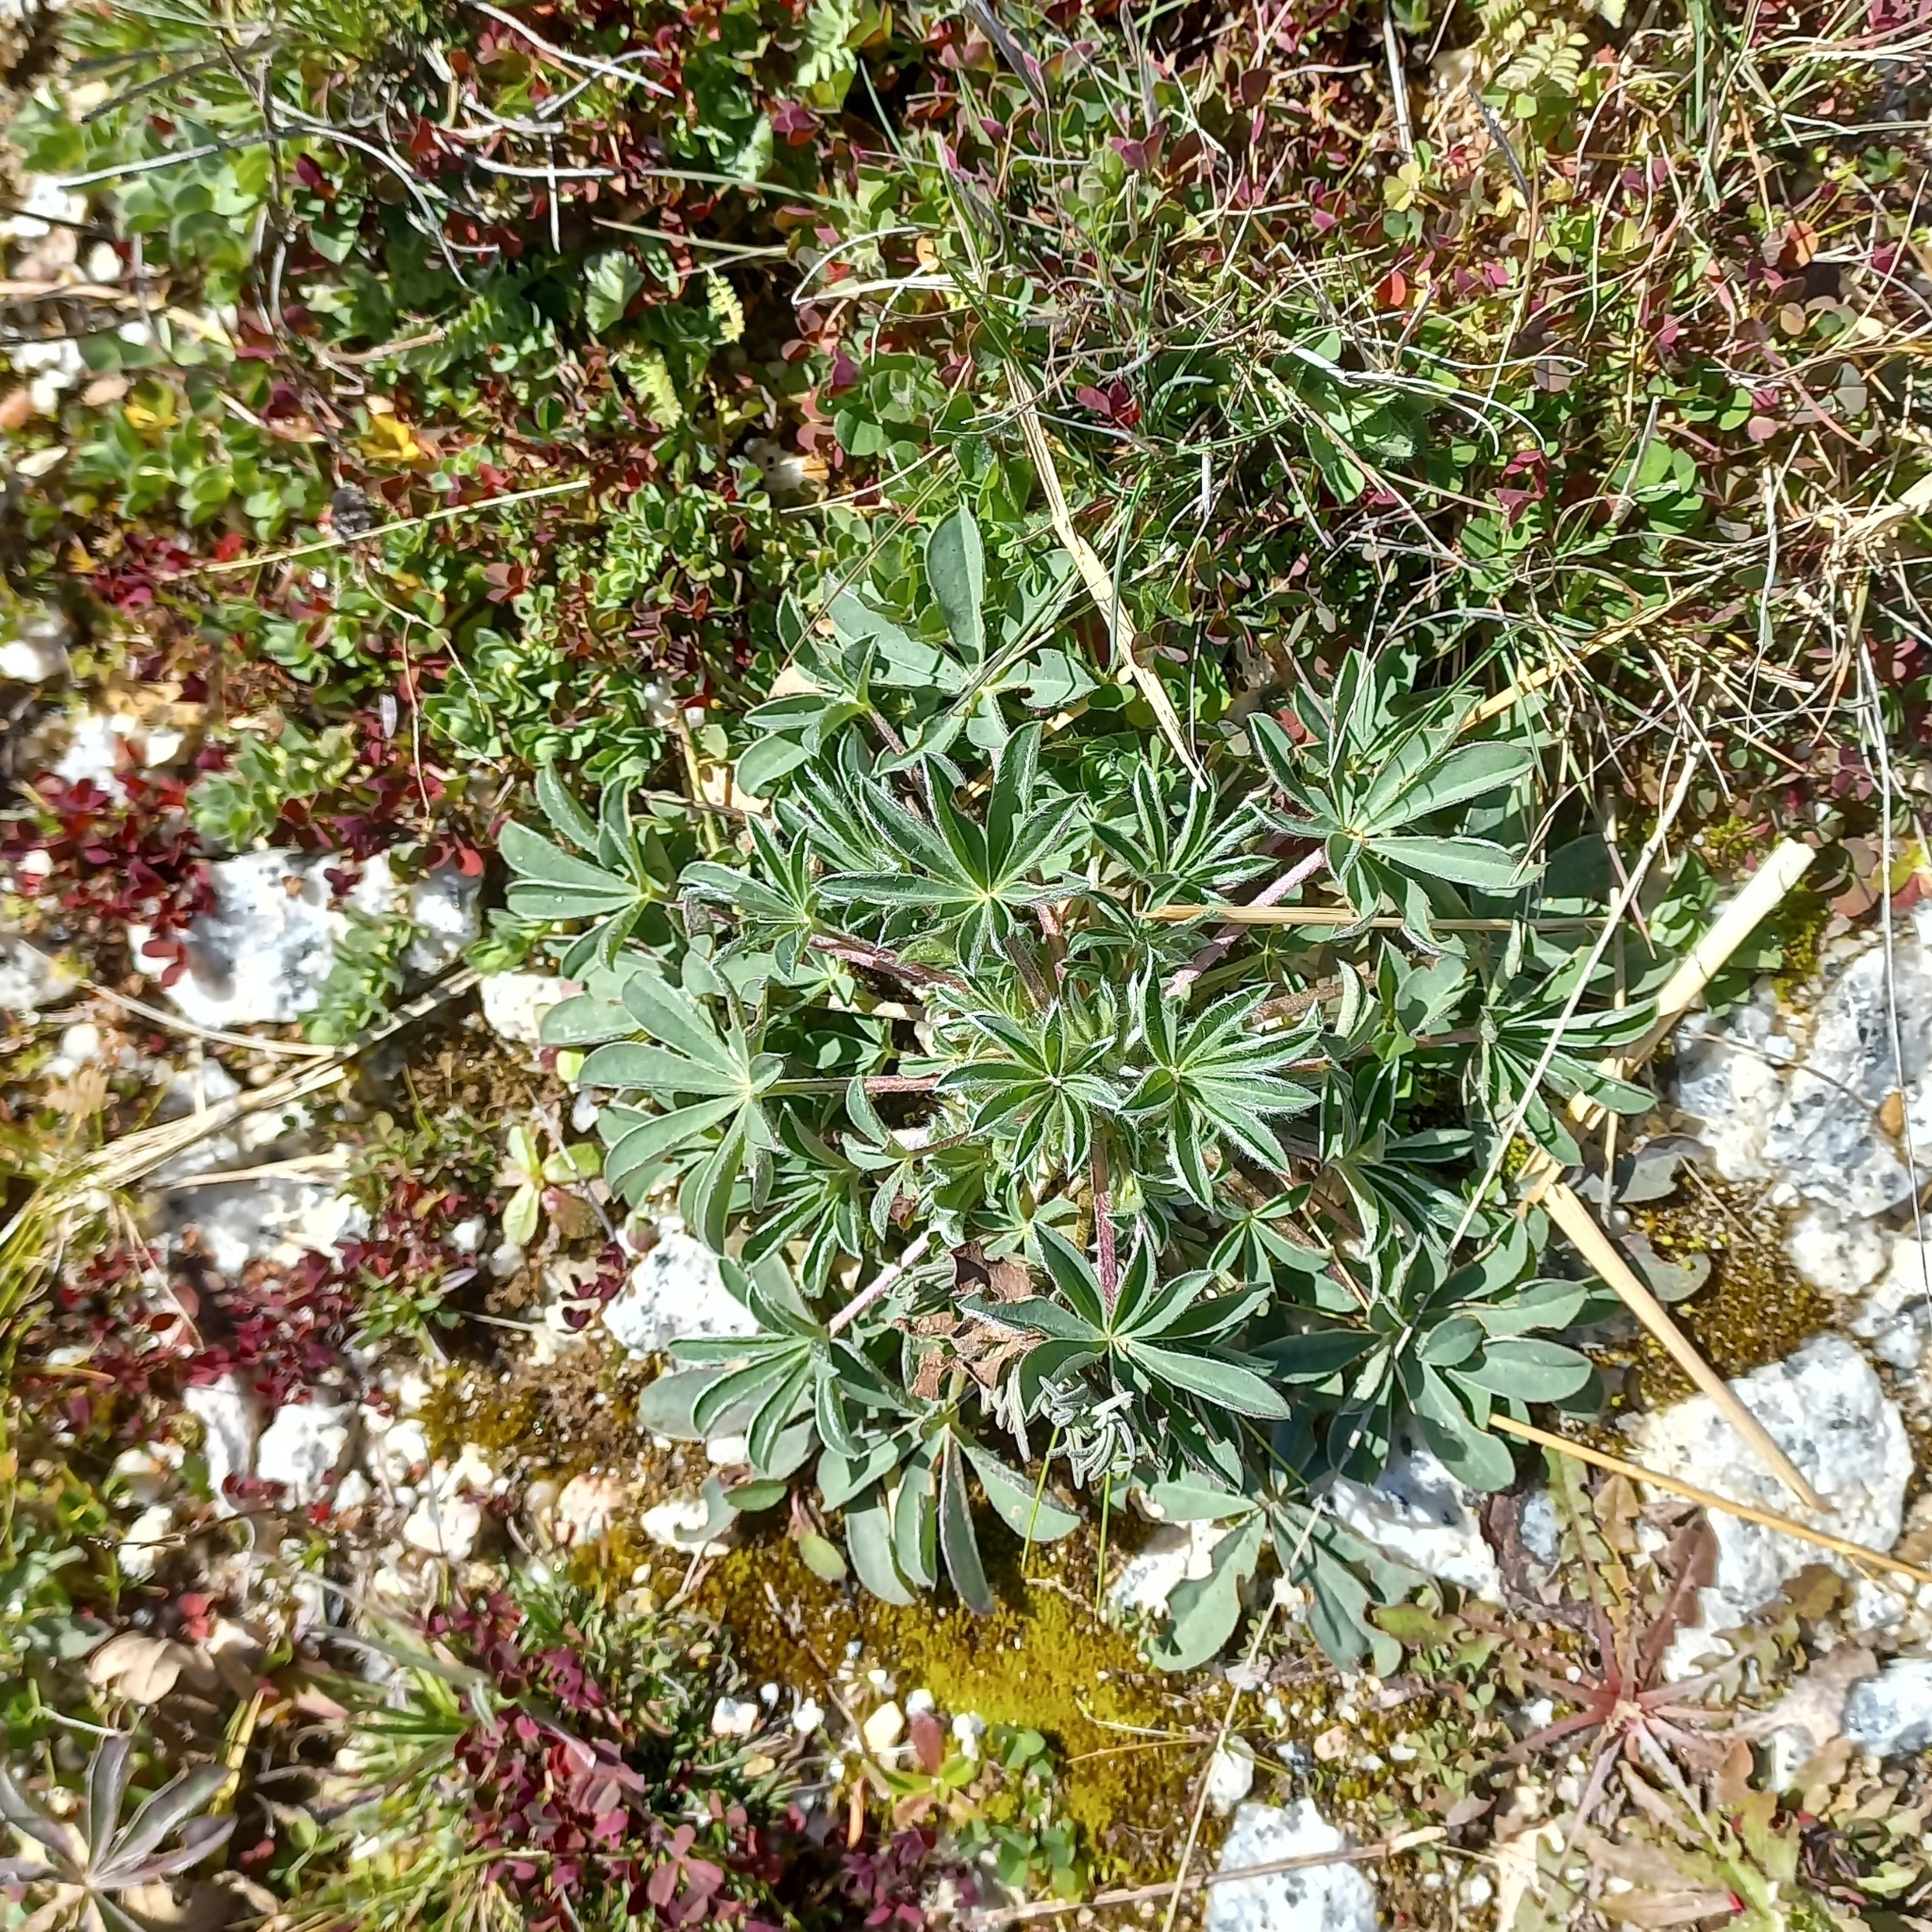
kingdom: Plantae
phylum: Tracheophyta
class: Magnoliopsida
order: Fabales
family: Fabaceae
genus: Lupinus
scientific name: Lupinus hispanicus
